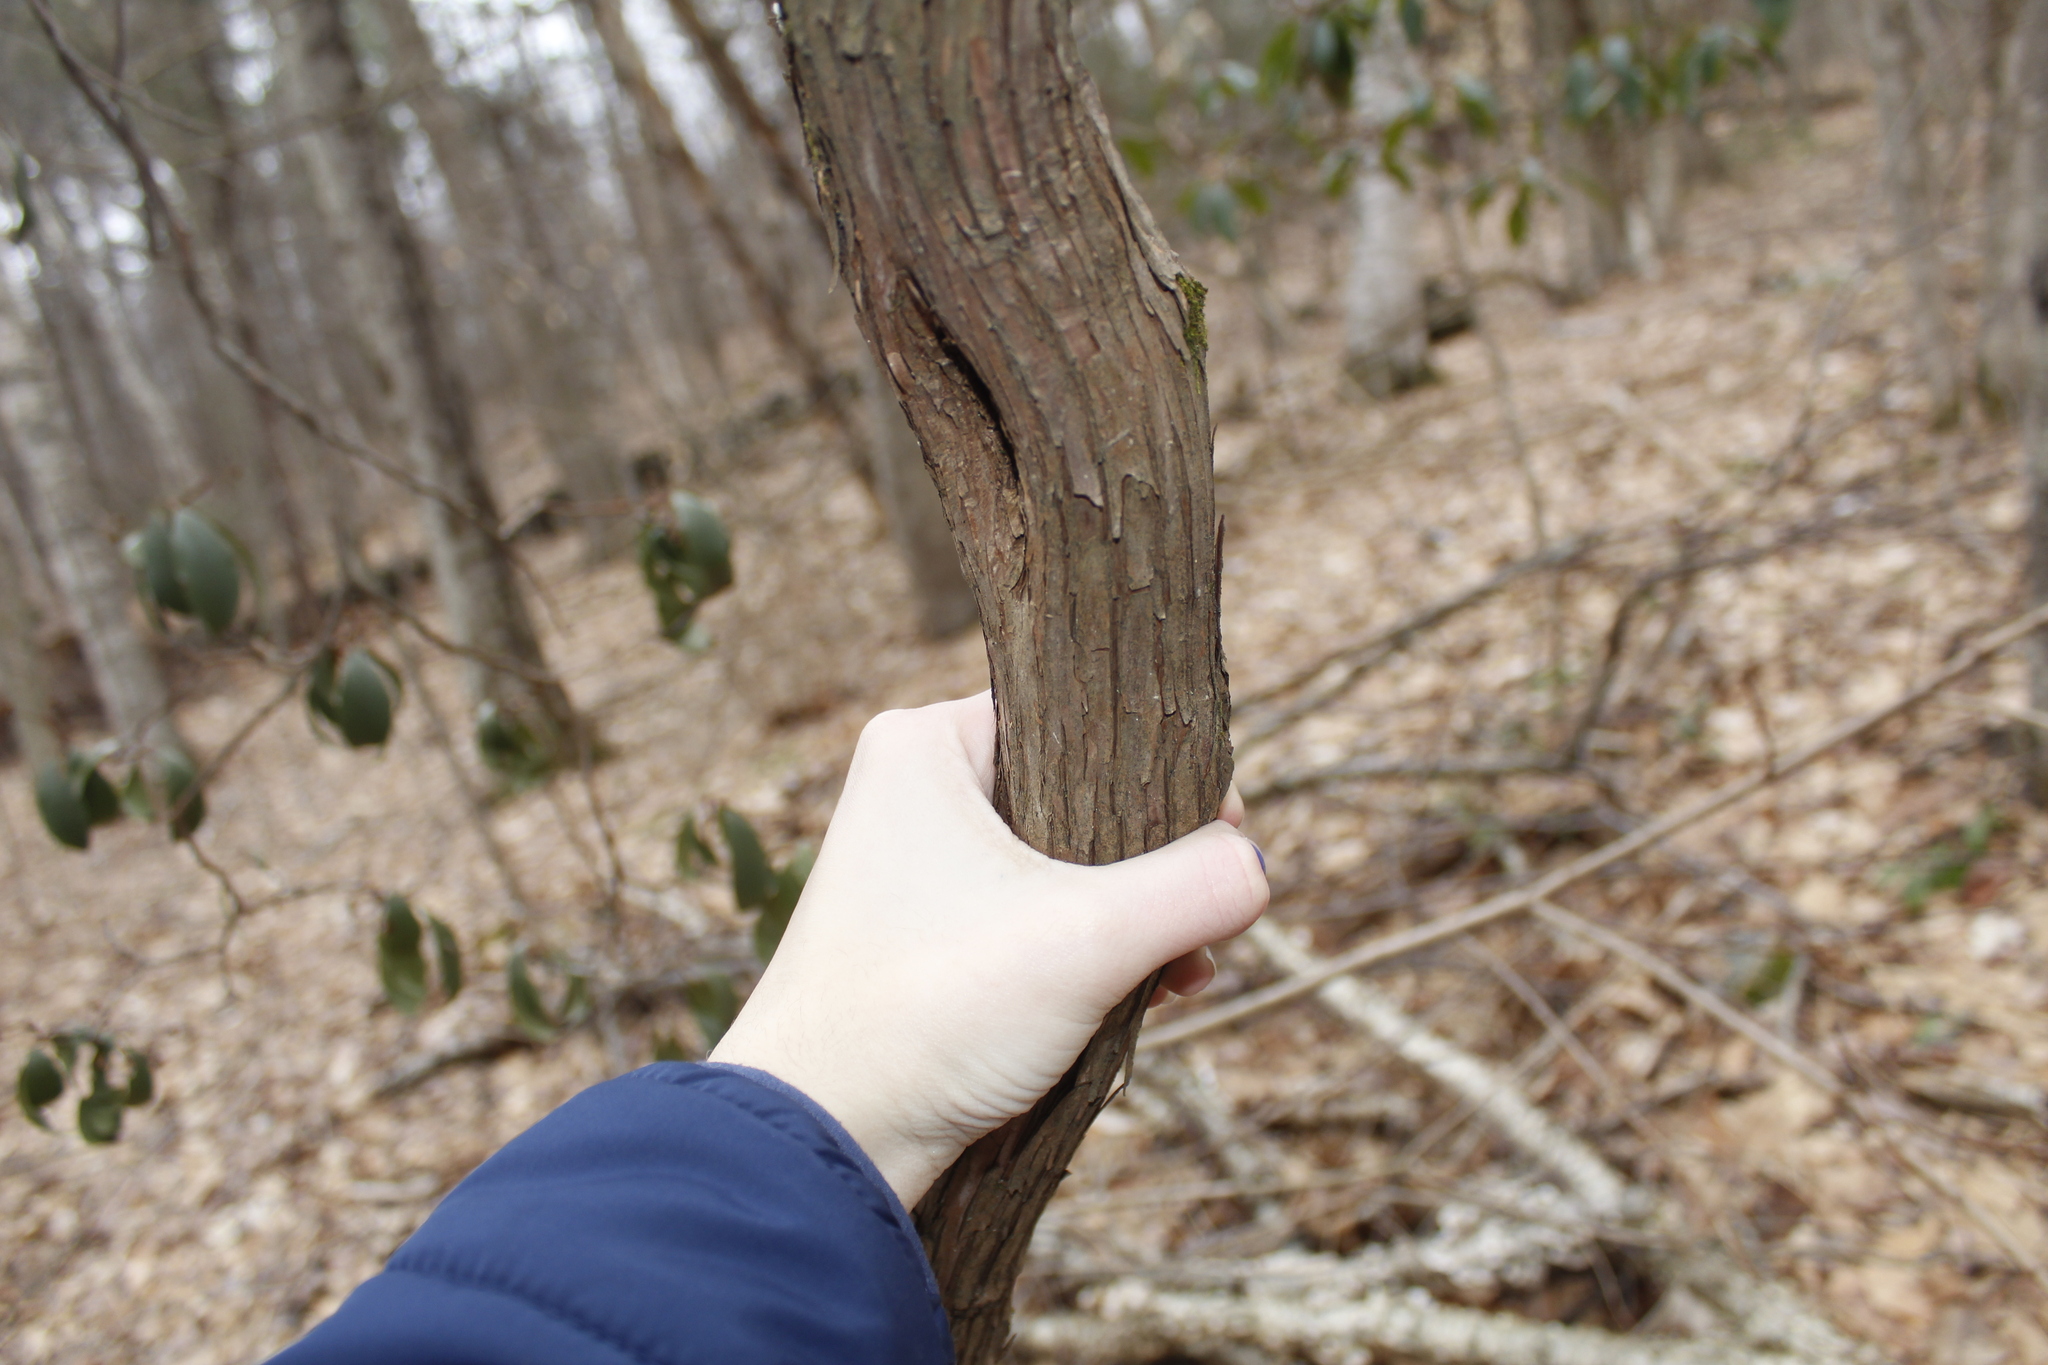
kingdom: Plantae
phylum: Tracheophyta
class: Magnoliopsida
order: Ericales
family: Ericaceae
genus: Kalmia
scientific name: Kalmia latifolia
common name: Mountain-laurel
